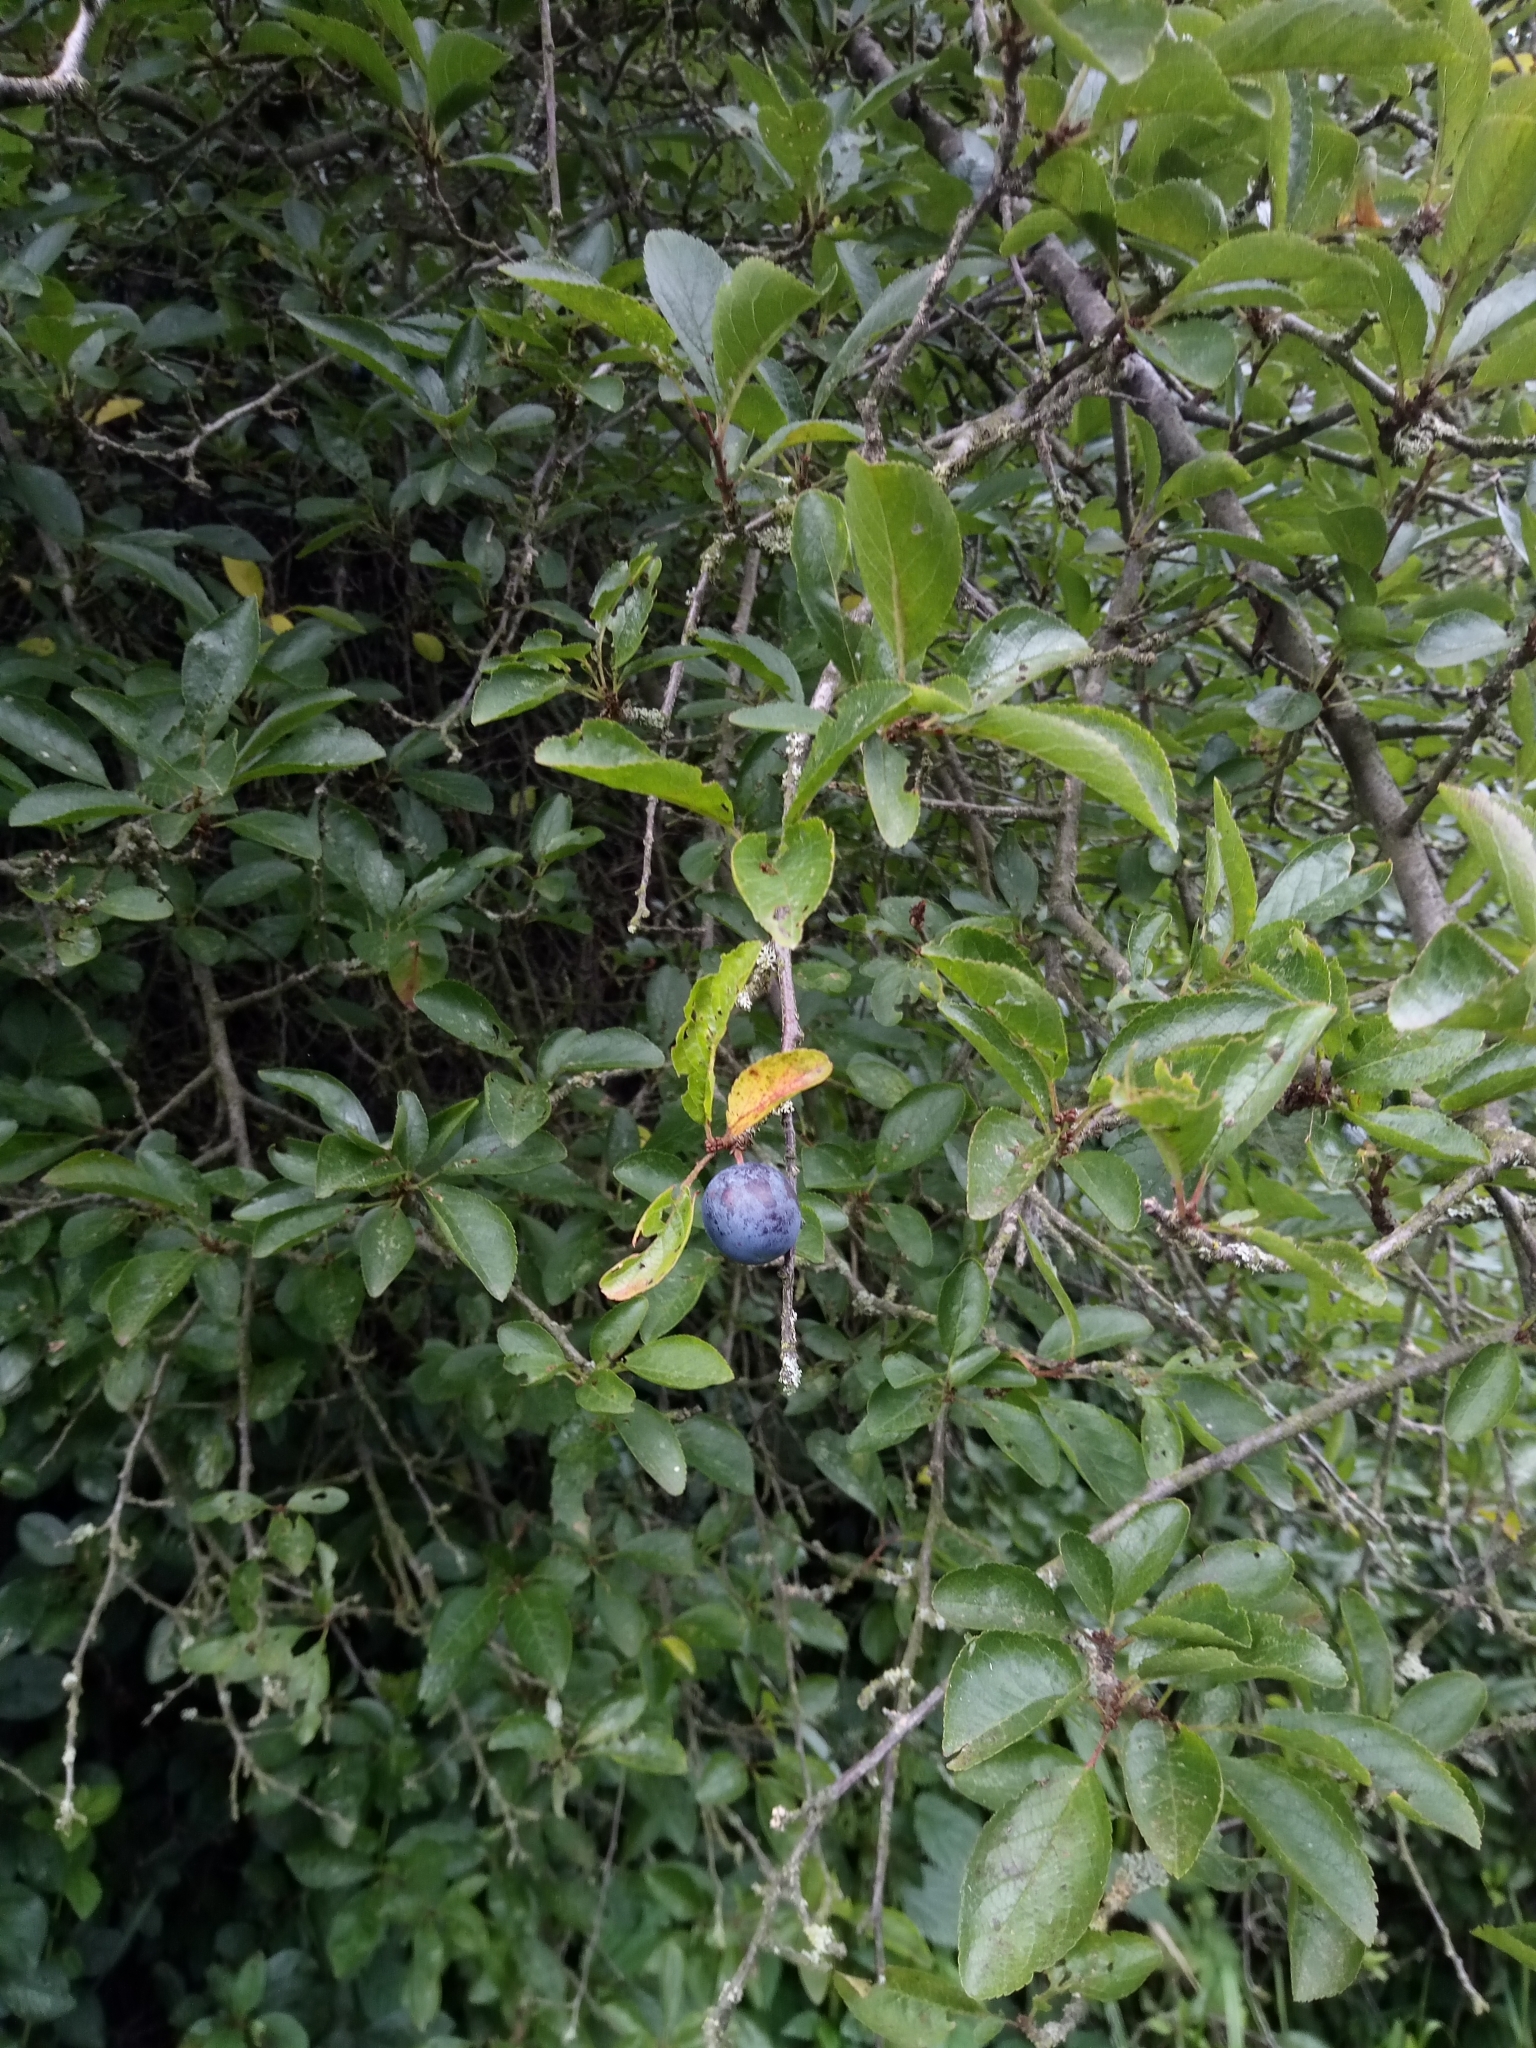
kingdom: Plantae
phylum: Tracheophyta
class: Magnoliopsida
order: Rosales
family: Rosaceae
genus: Prunus
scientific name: Prunus spinosa
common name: Blackthorn
